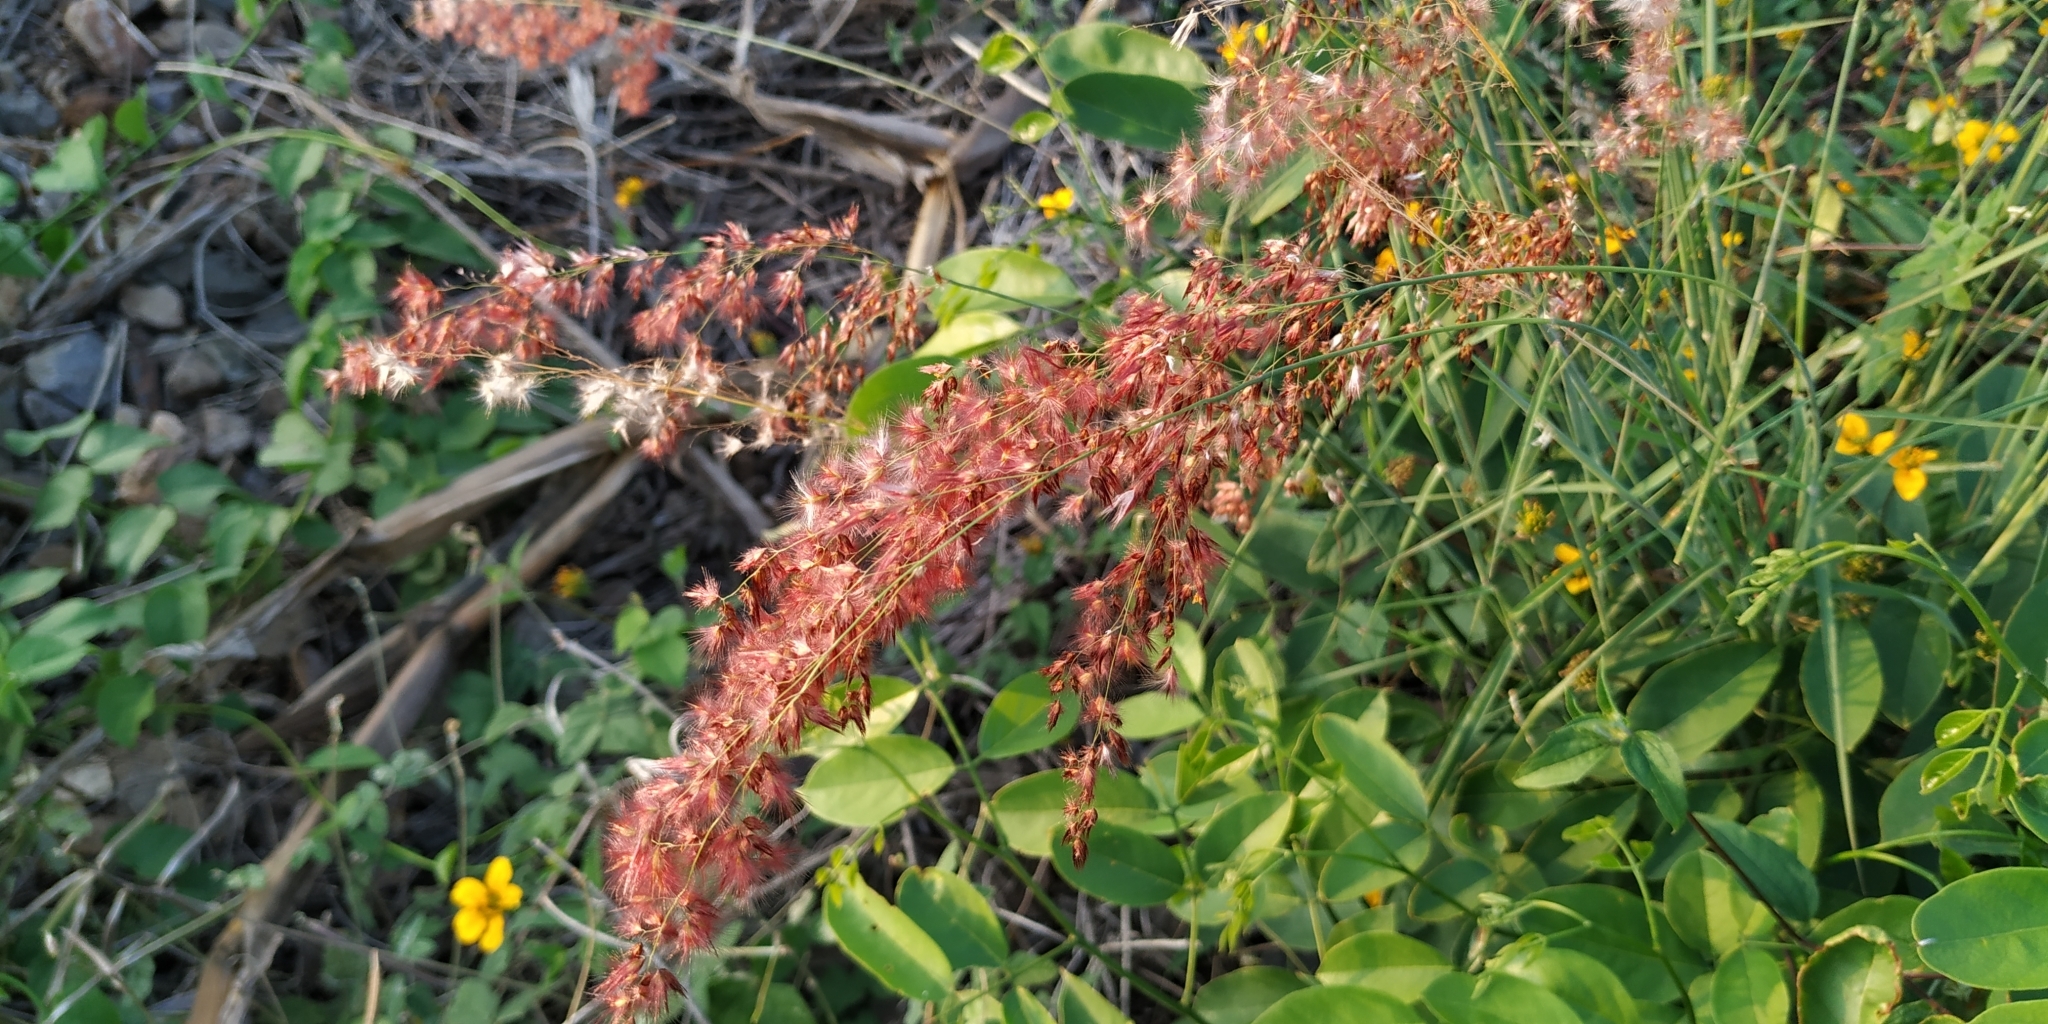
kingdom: Plantae
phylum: Tracheophyta
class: Liliopsida
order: Poales
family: Poaceae
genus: Melinis
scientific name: Melinis repens
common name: Rose natal grass
